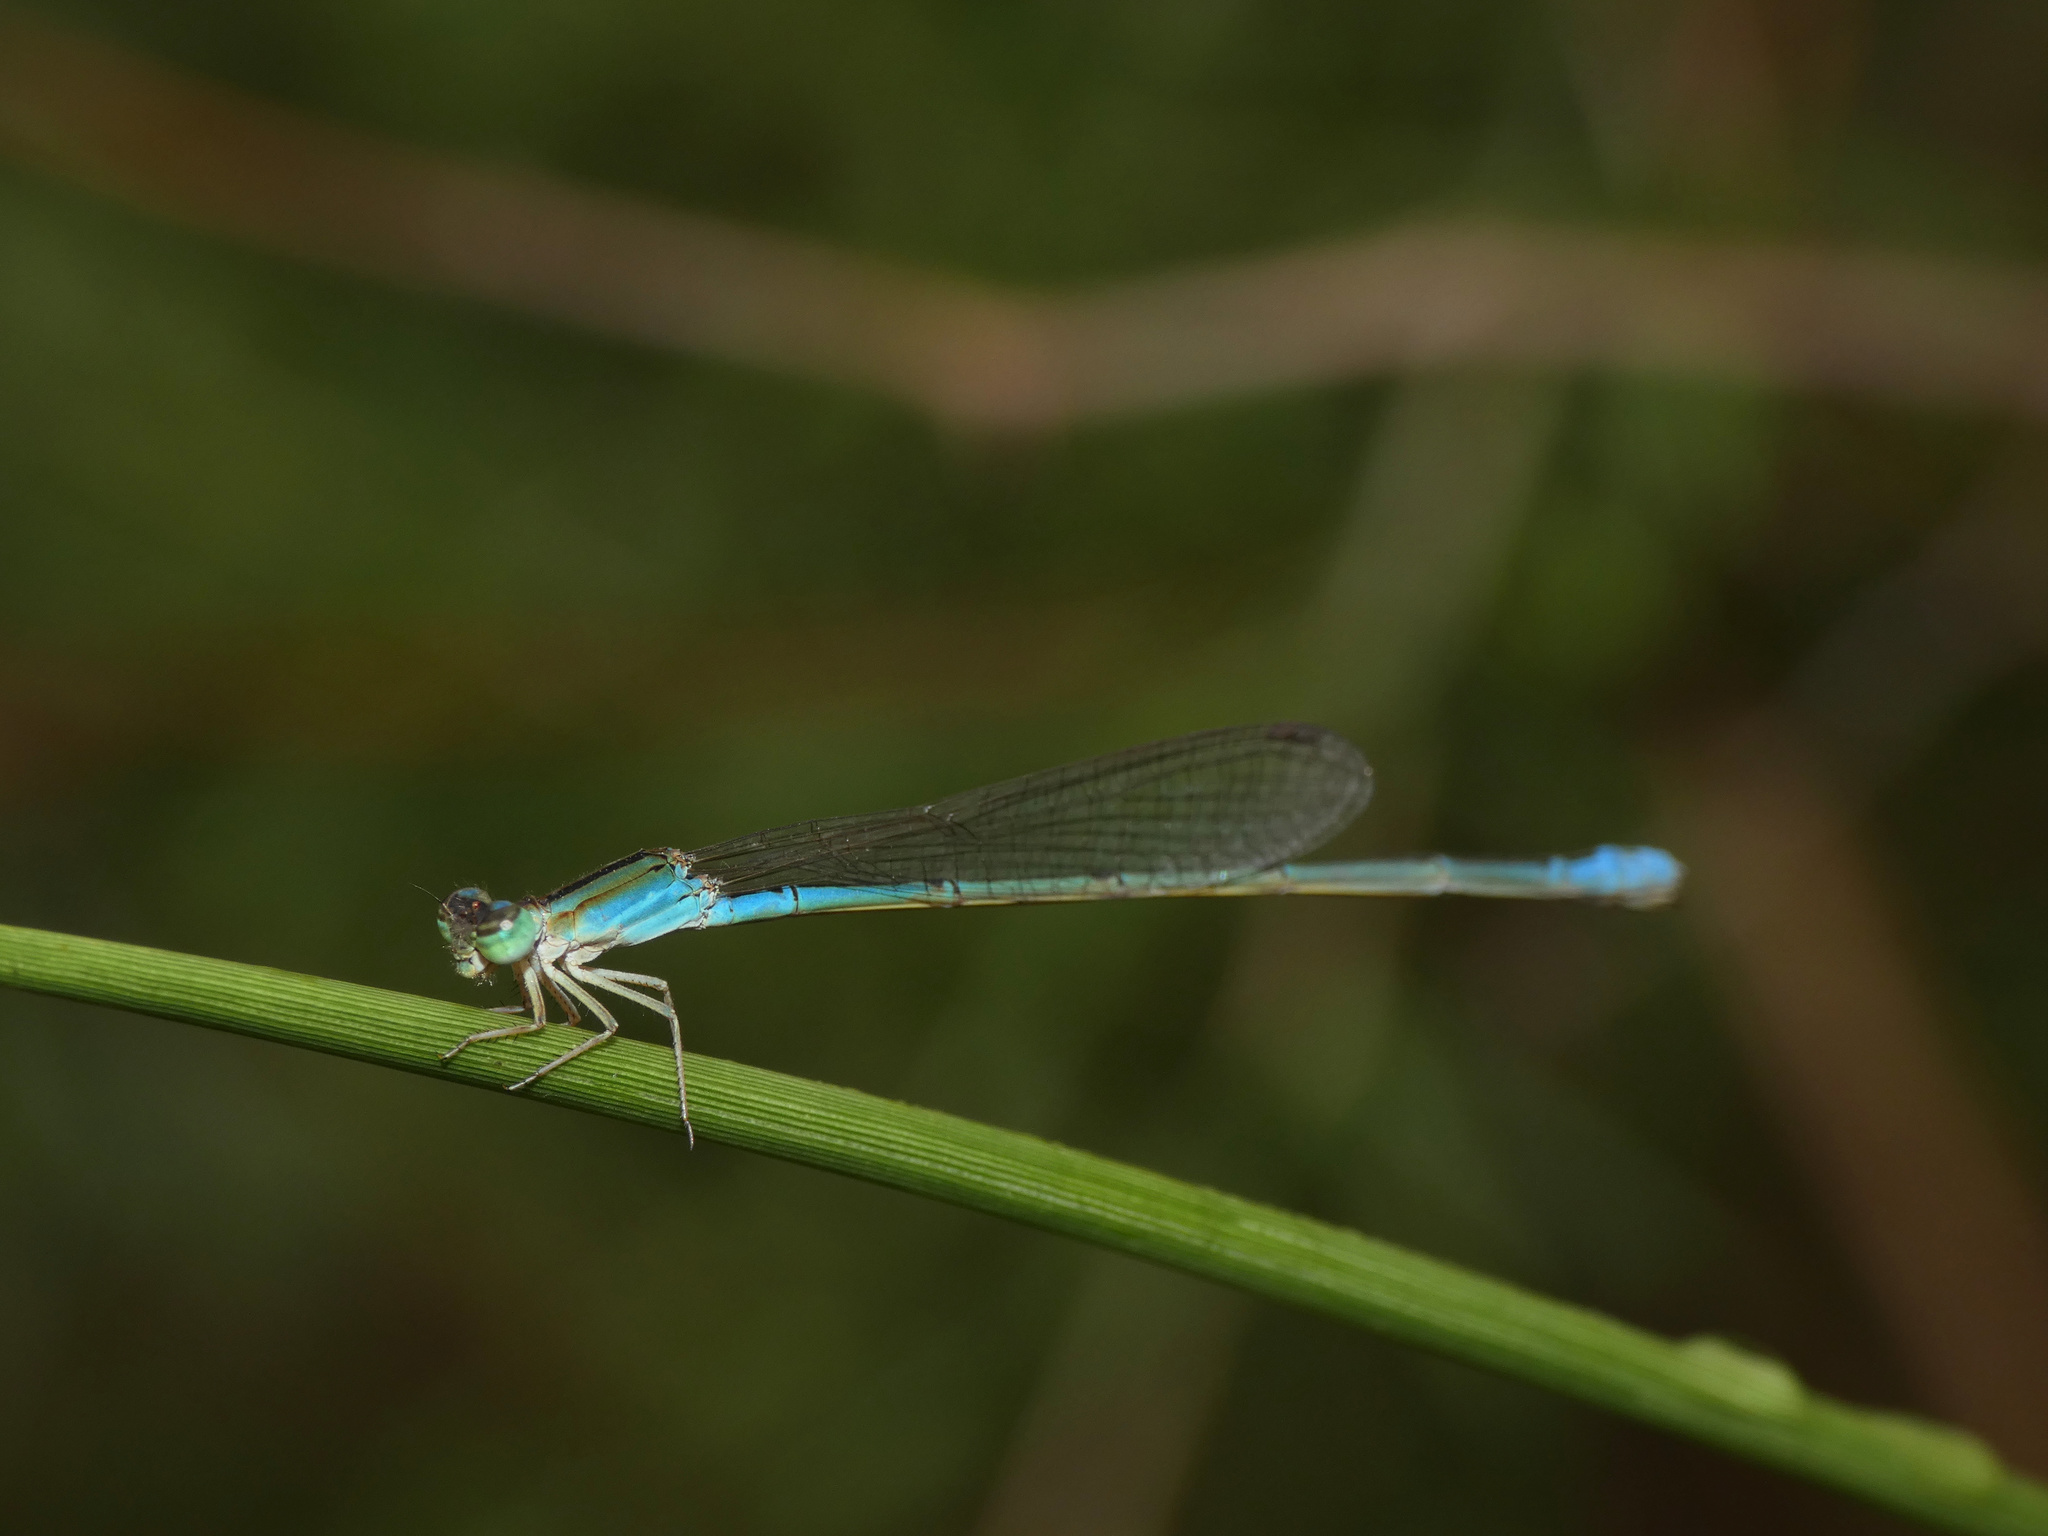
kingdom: Animalia
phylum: Arthropoda
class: Insecta
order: Odonata
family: Coenagrionidae
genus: Africallagma
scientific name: Africallagma fractum
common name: Slender bluet
